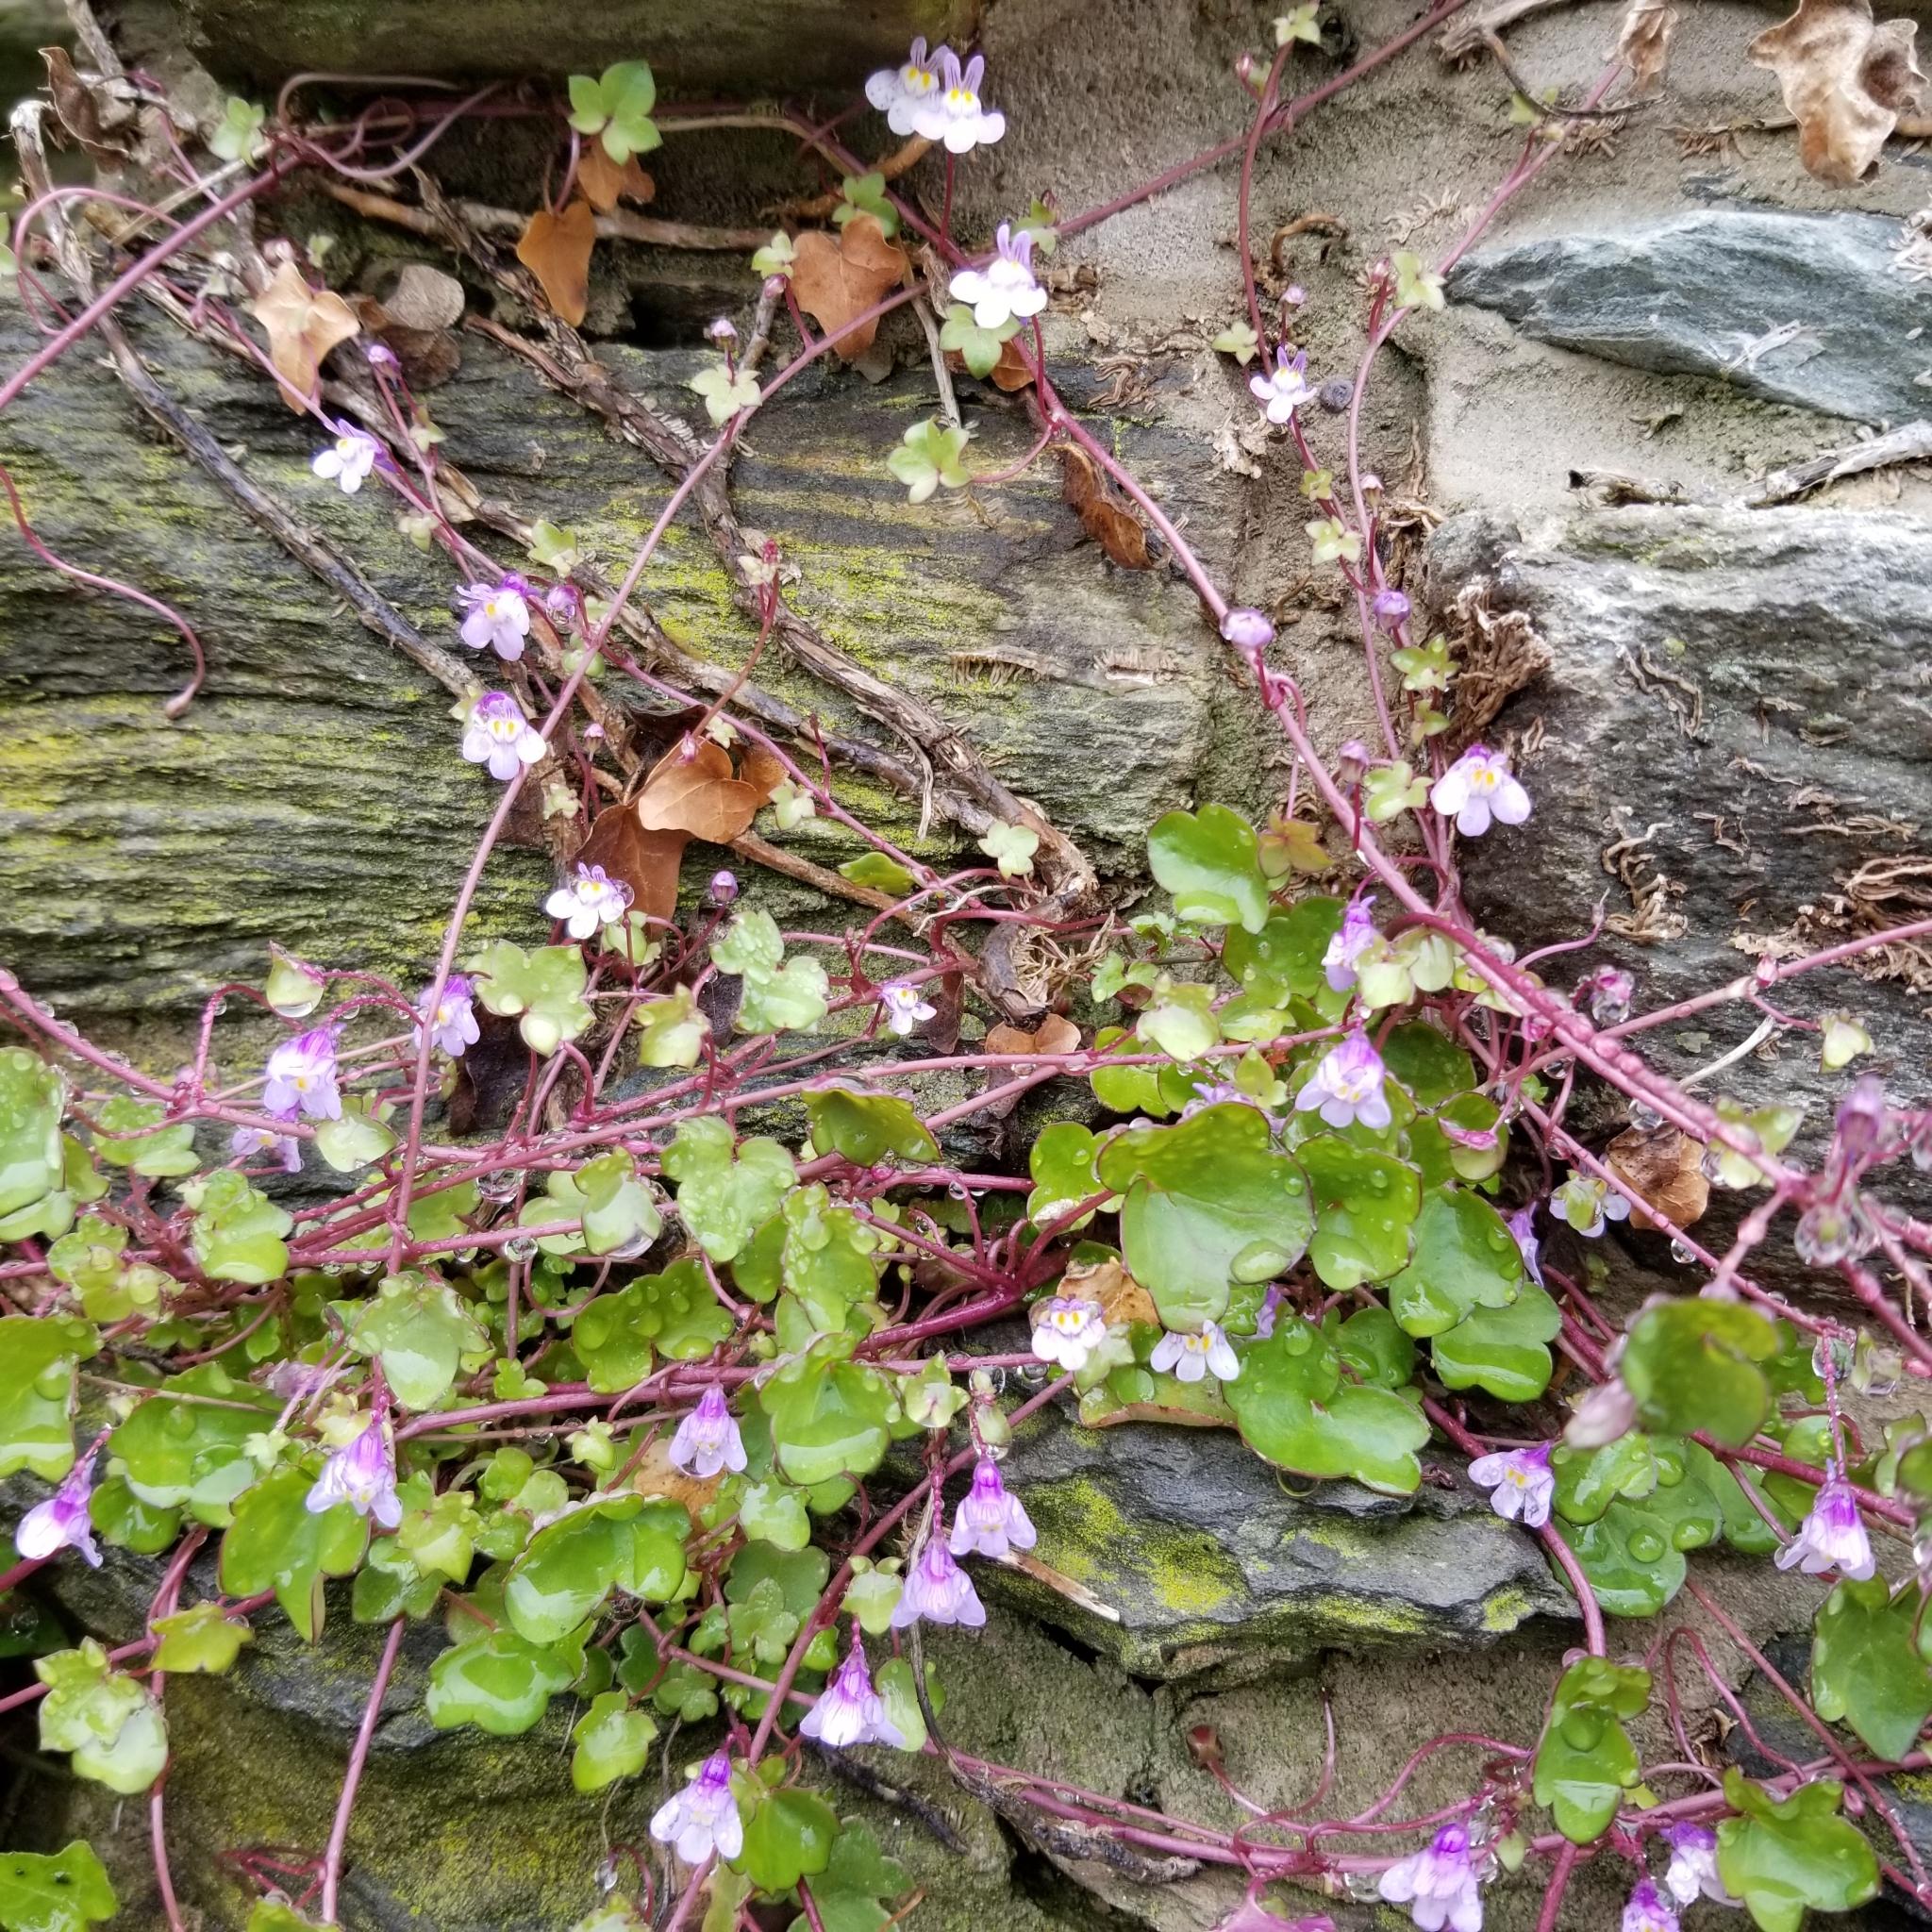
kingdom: Plantae
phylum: Tracheophyta
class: Magnoliopsida
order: Lamiales
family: Plantaginaceae
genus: Cymbalaria
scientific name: Cymbalaria muralis
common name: Ivy-leaved toadflax
